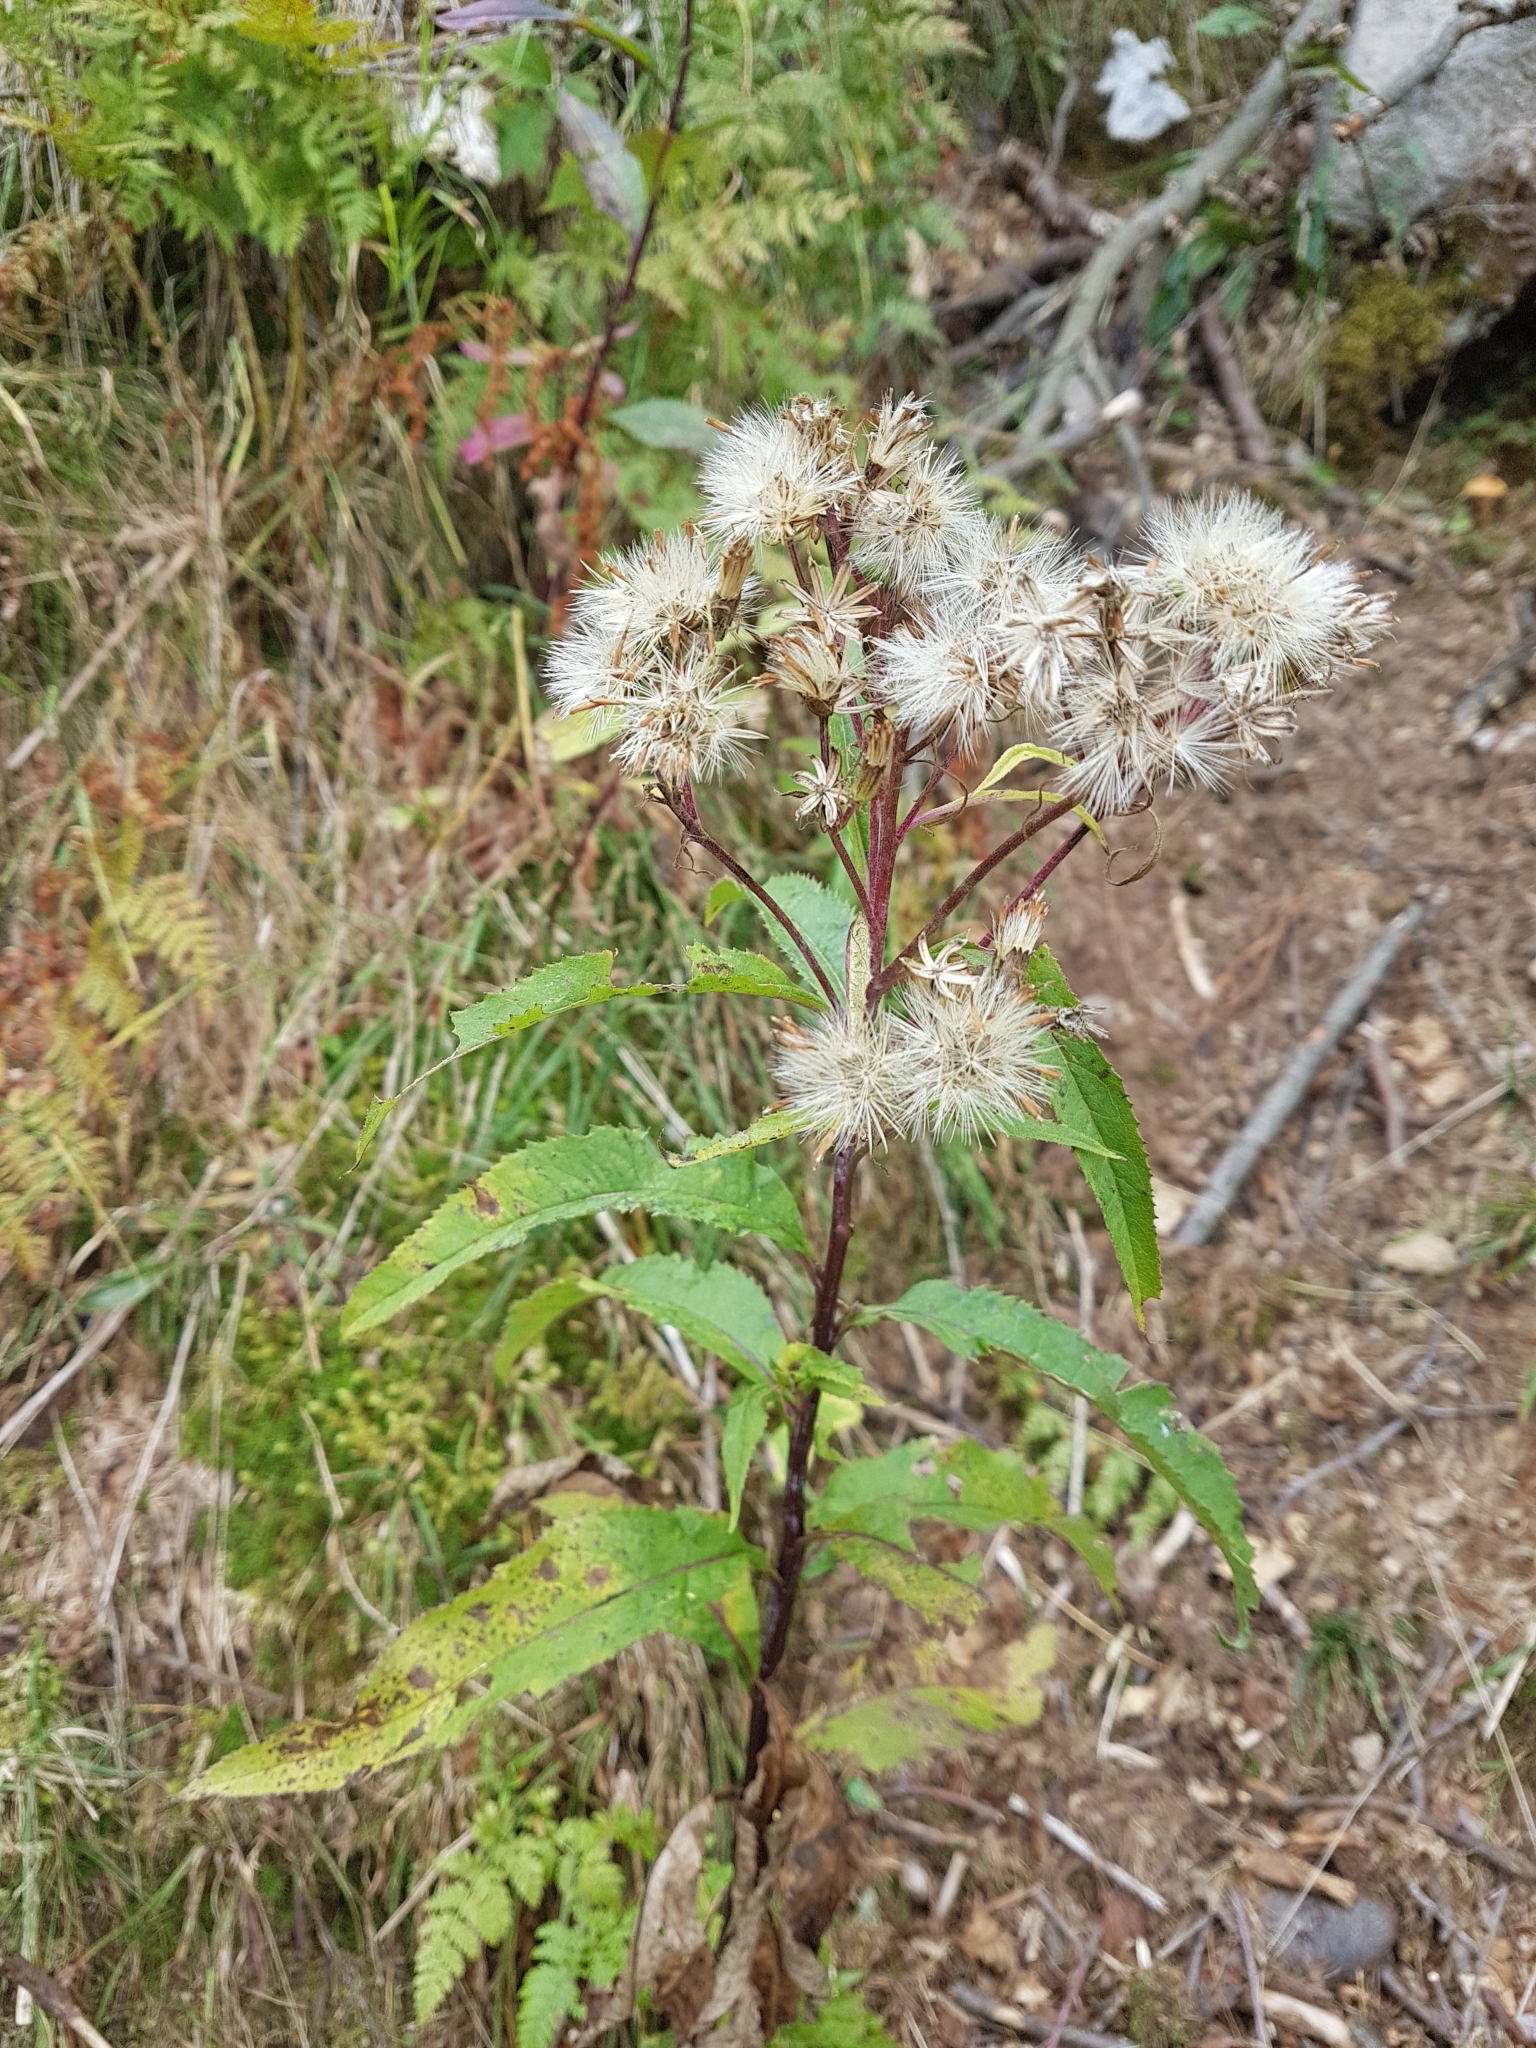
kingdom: Plantae
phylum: Tracheophyta
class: Magnoliopsida
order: Asterales
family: Asteraceae
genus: Solidago
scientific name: Solidago virgaurea
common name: Goldenrod
